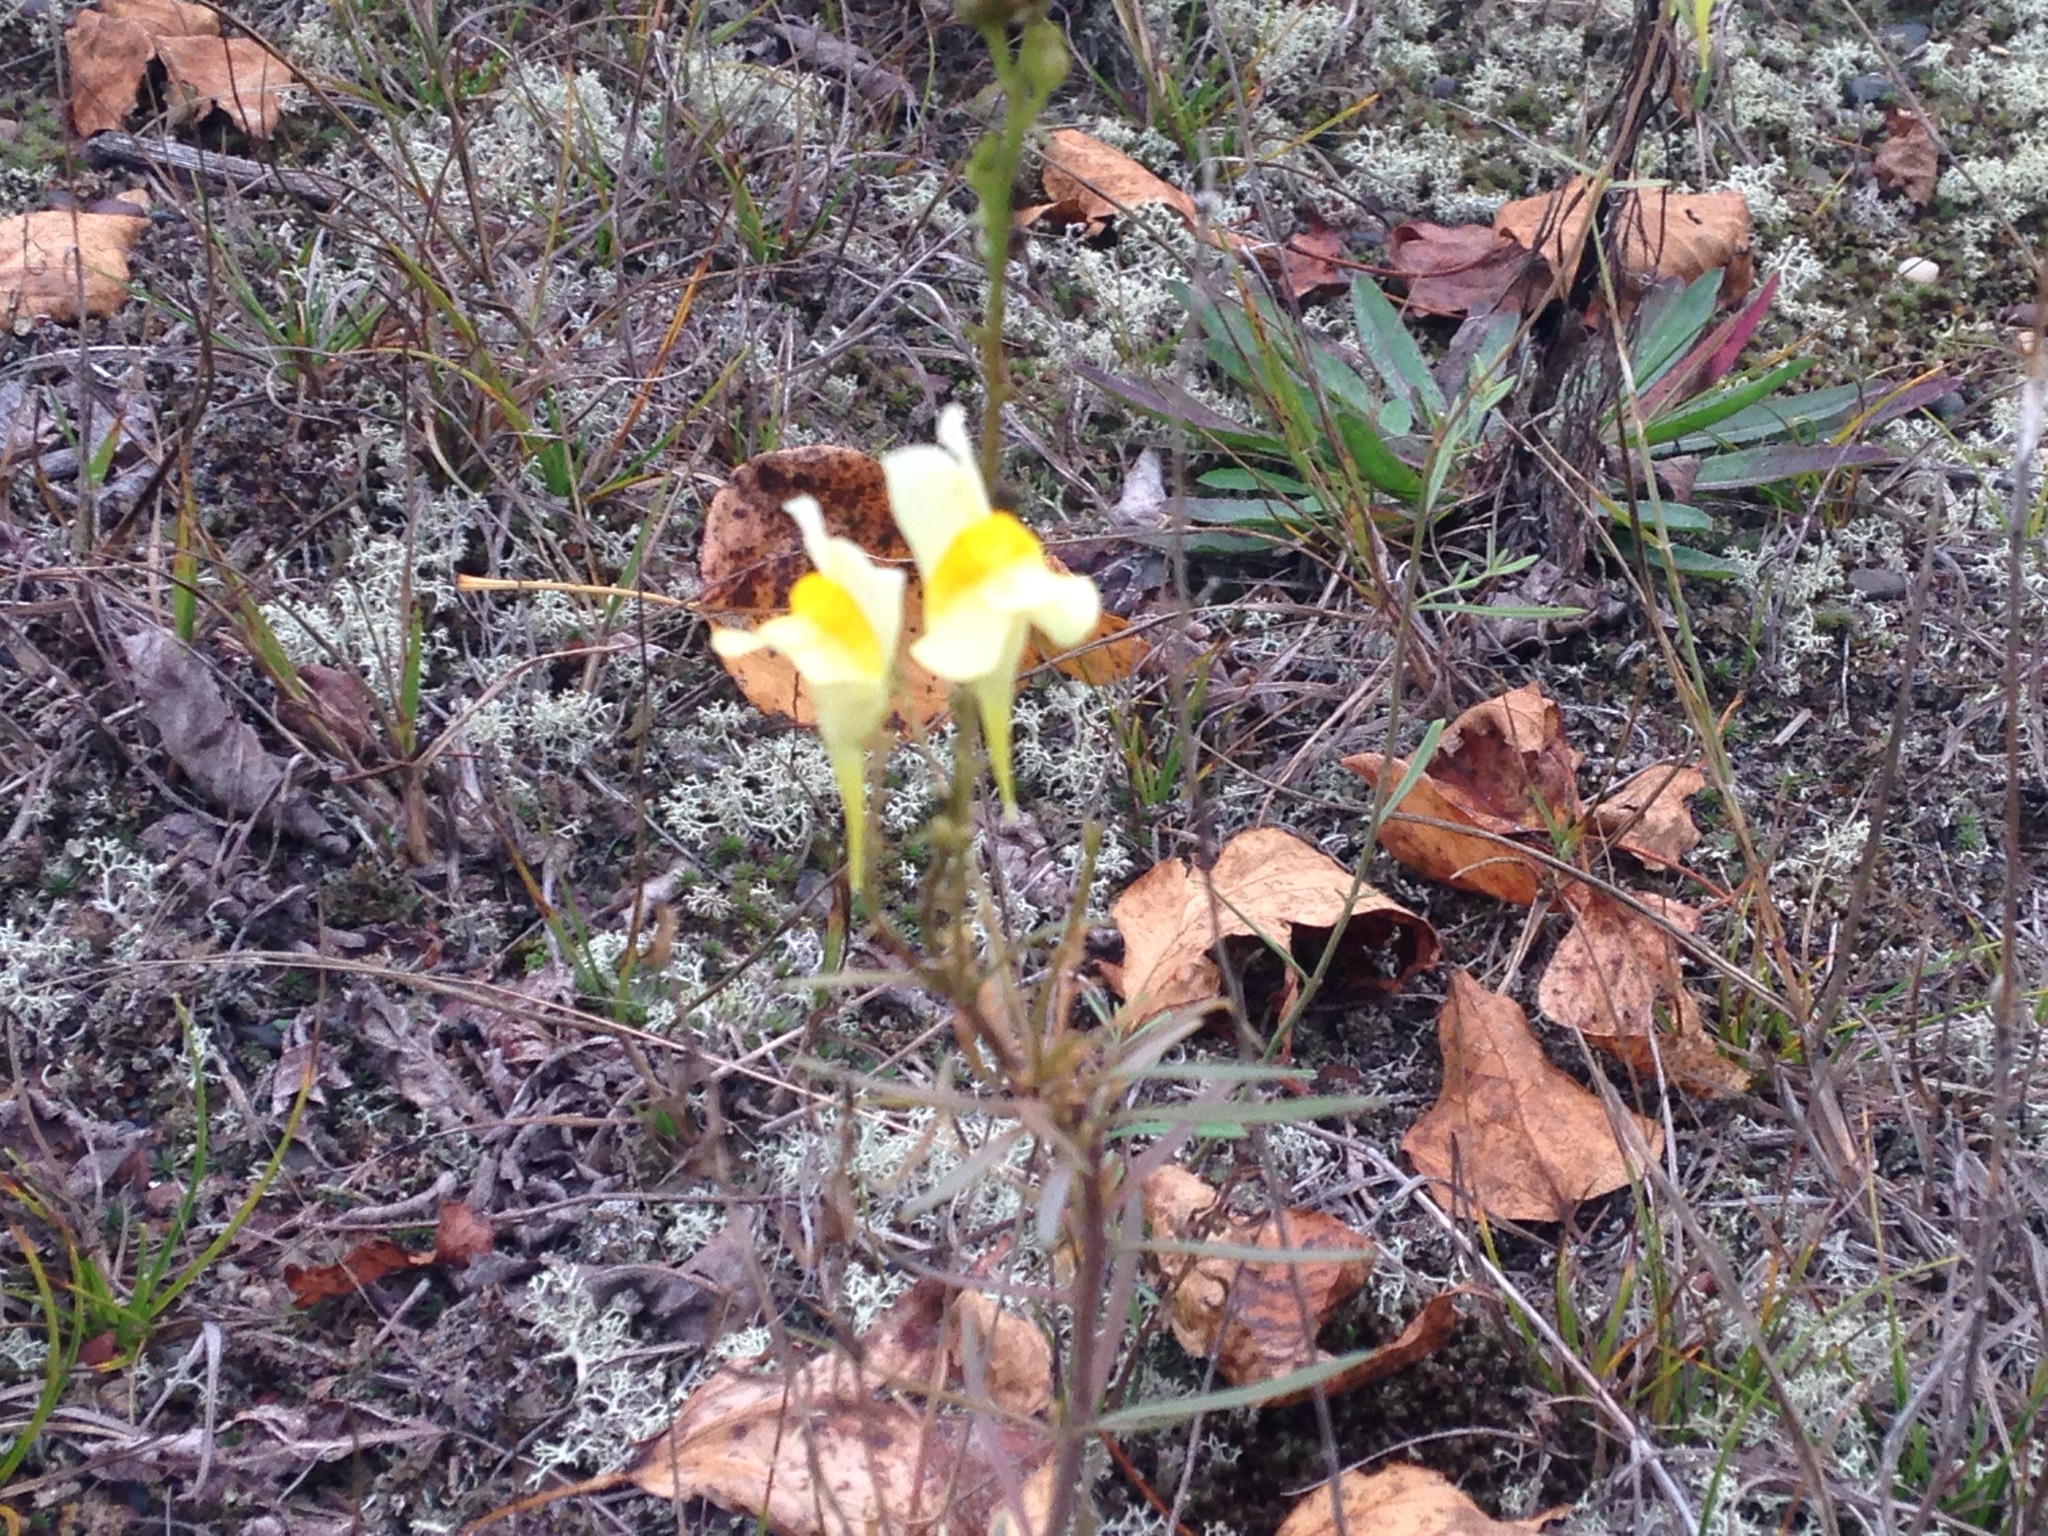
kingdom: Plantae
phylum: Tracheophyta
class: Magnoliopsida
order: Lamiales
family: Plantaginaceae
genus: Linaria
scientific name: Linaria vulgaris
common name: Butter and eggs
